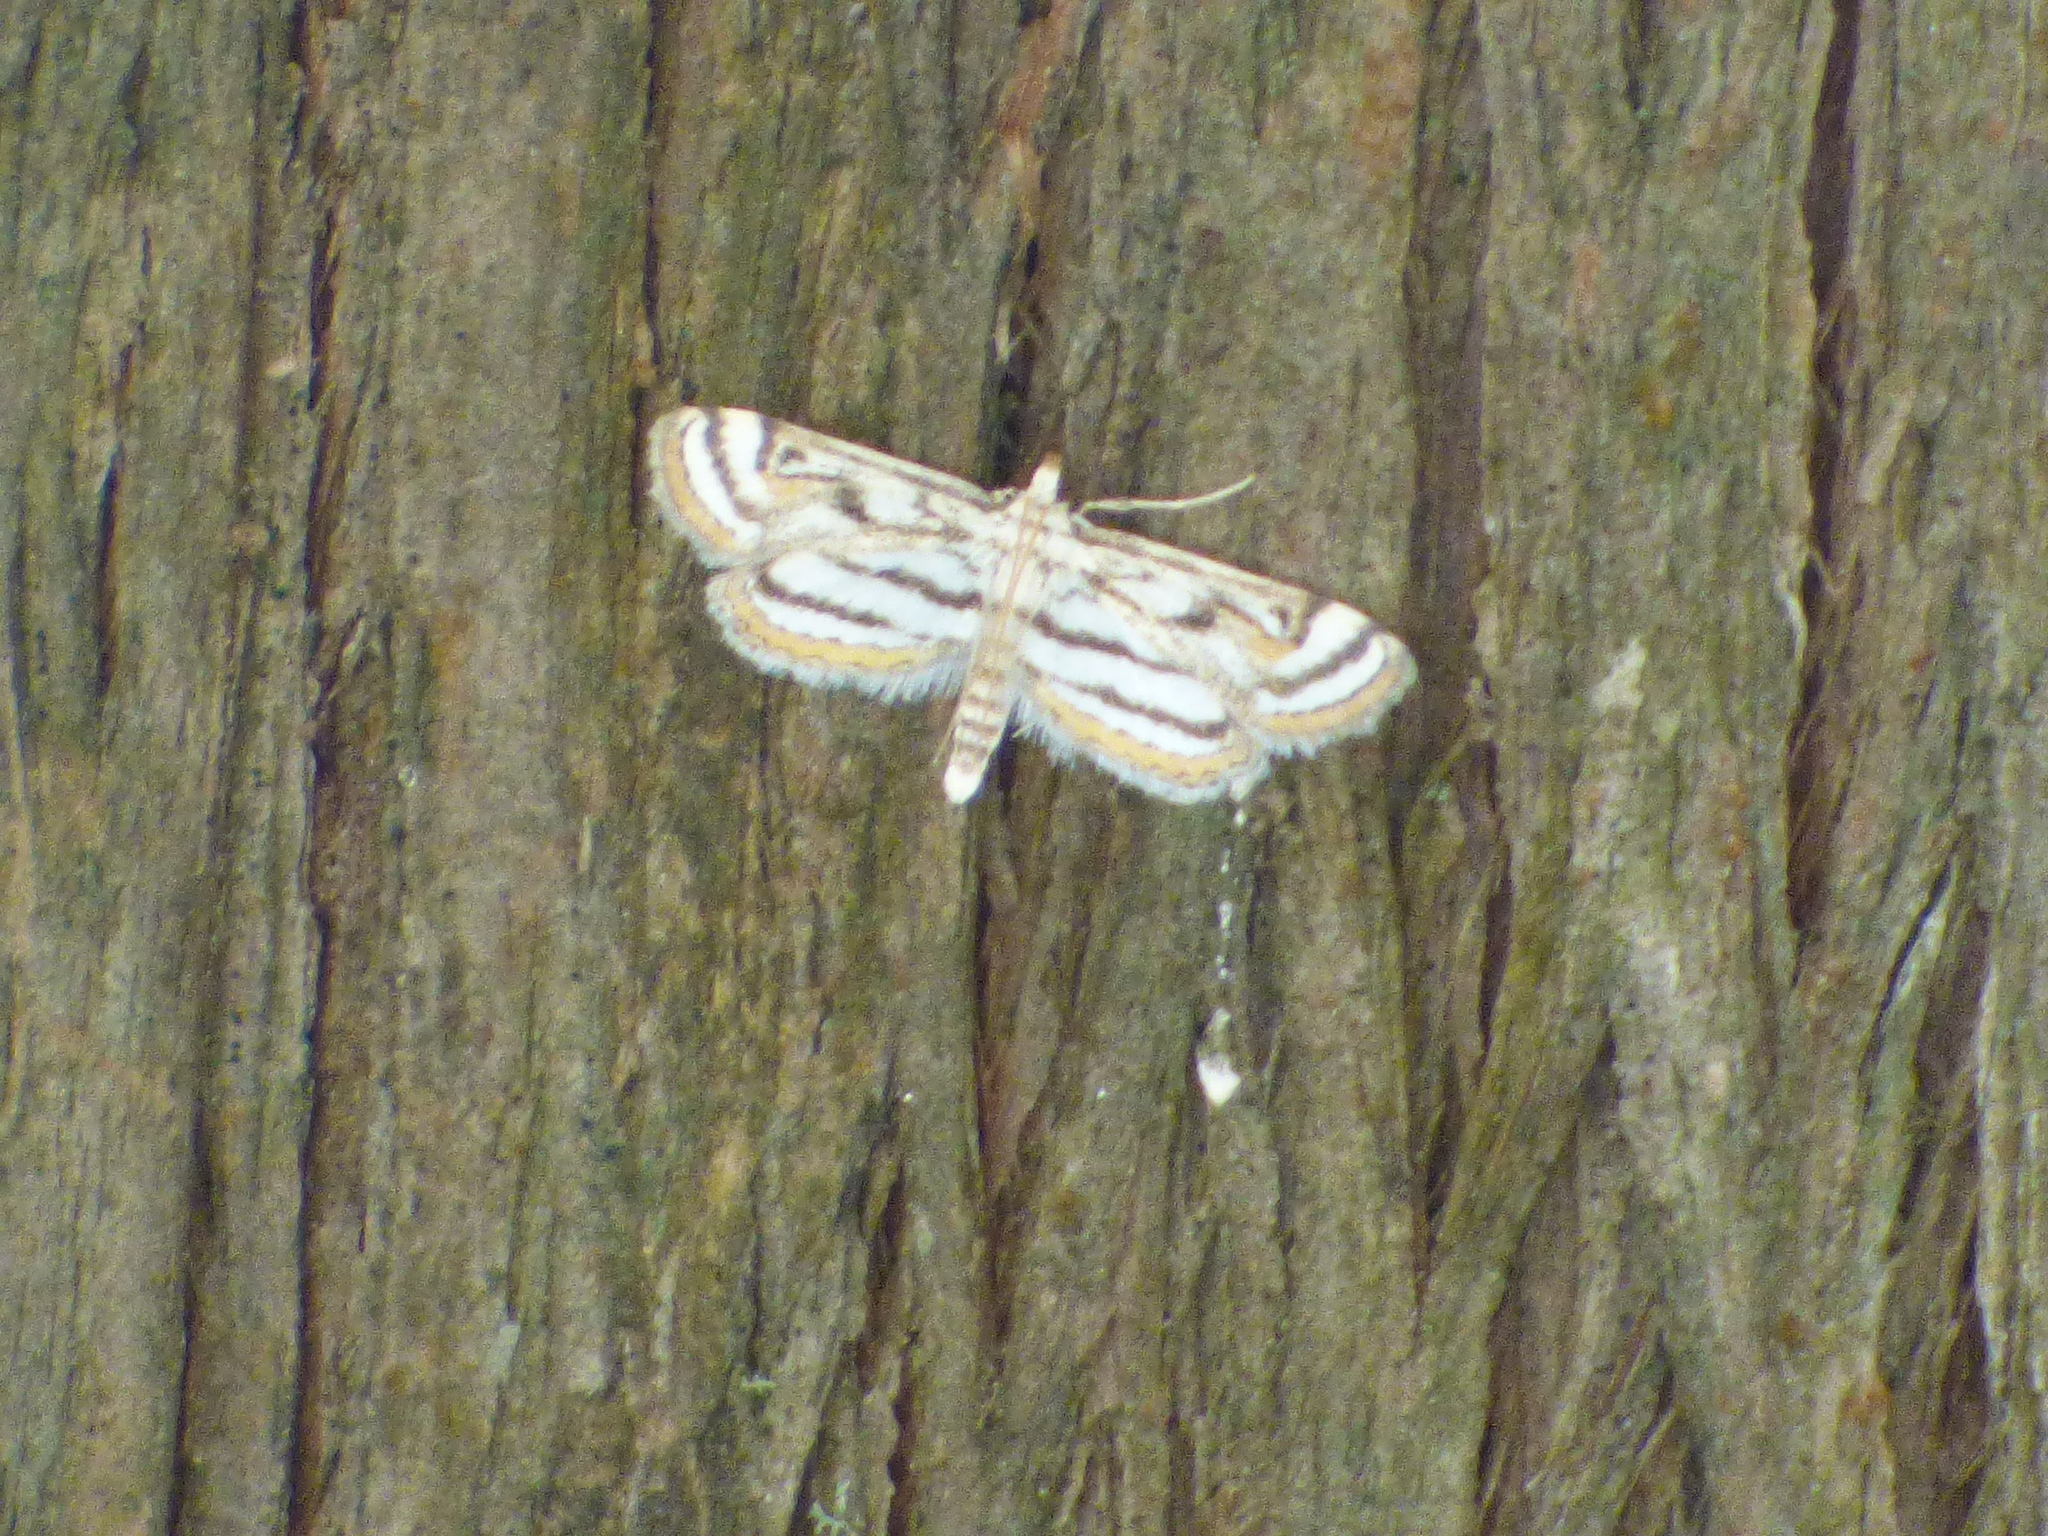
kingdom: Animalia
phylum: Arthropoda
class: Insecta
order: Lepidoptera
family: Crambidae
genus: Parapoynx
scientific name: Parapoynx badiusalis
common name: Chestnut-marked pondweed moth
